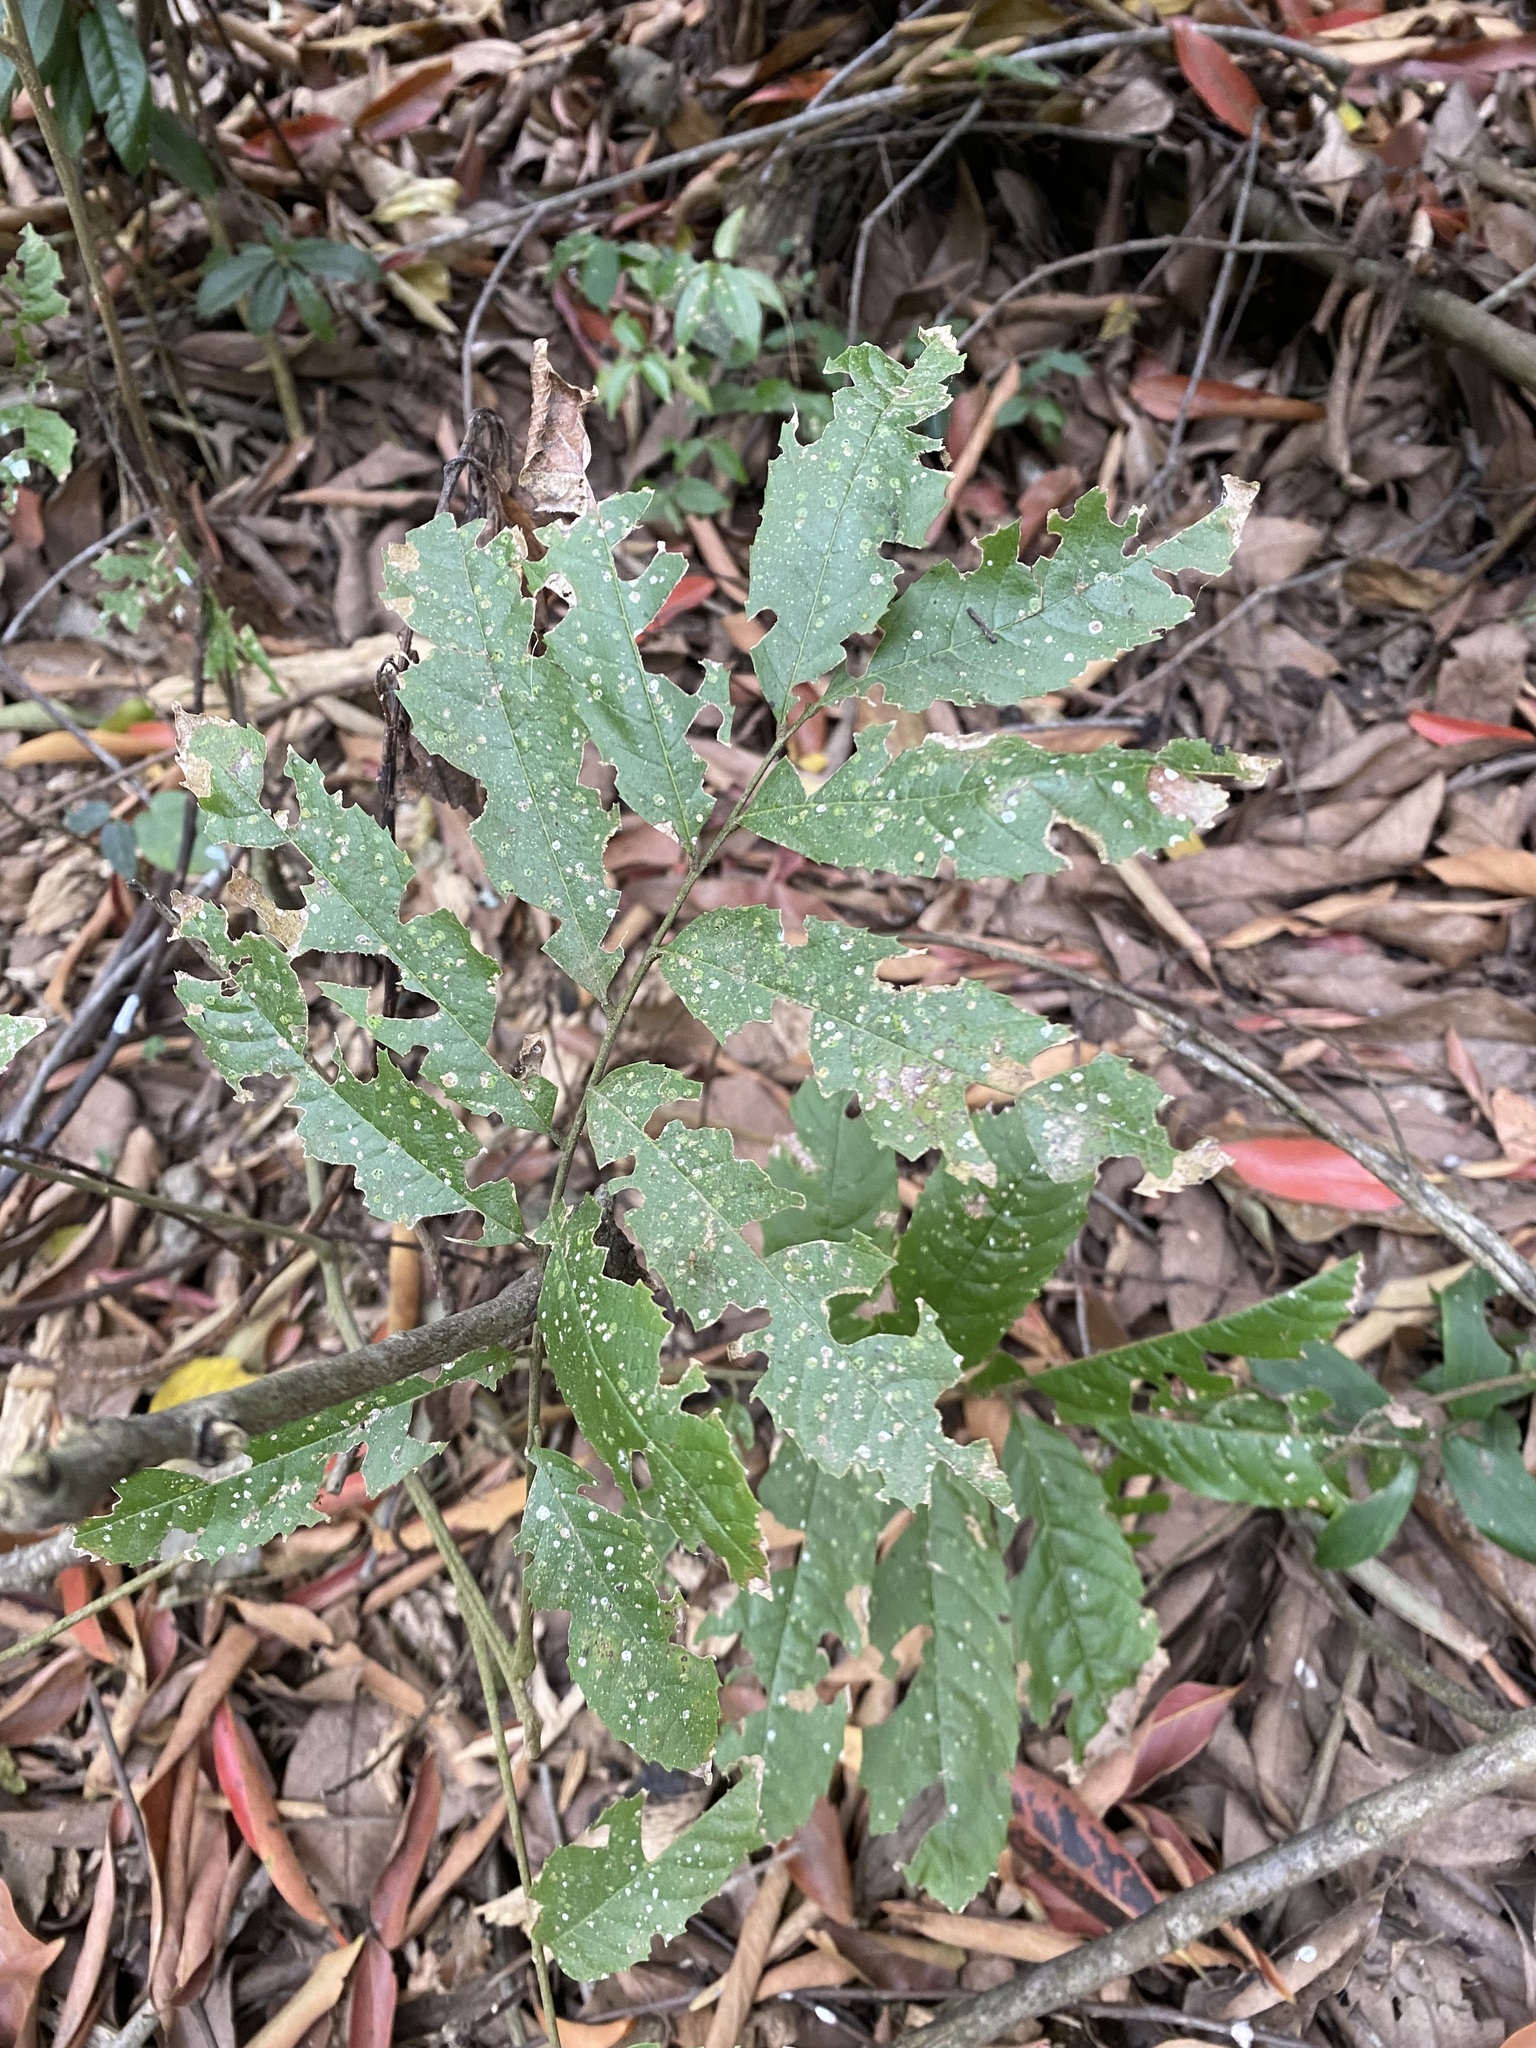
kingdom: Plantae
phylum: Tracheophyta
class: Magnoliopsida
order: Sapindales
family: Sapindaceae
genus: Cupania
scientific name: Cupania vernalis
